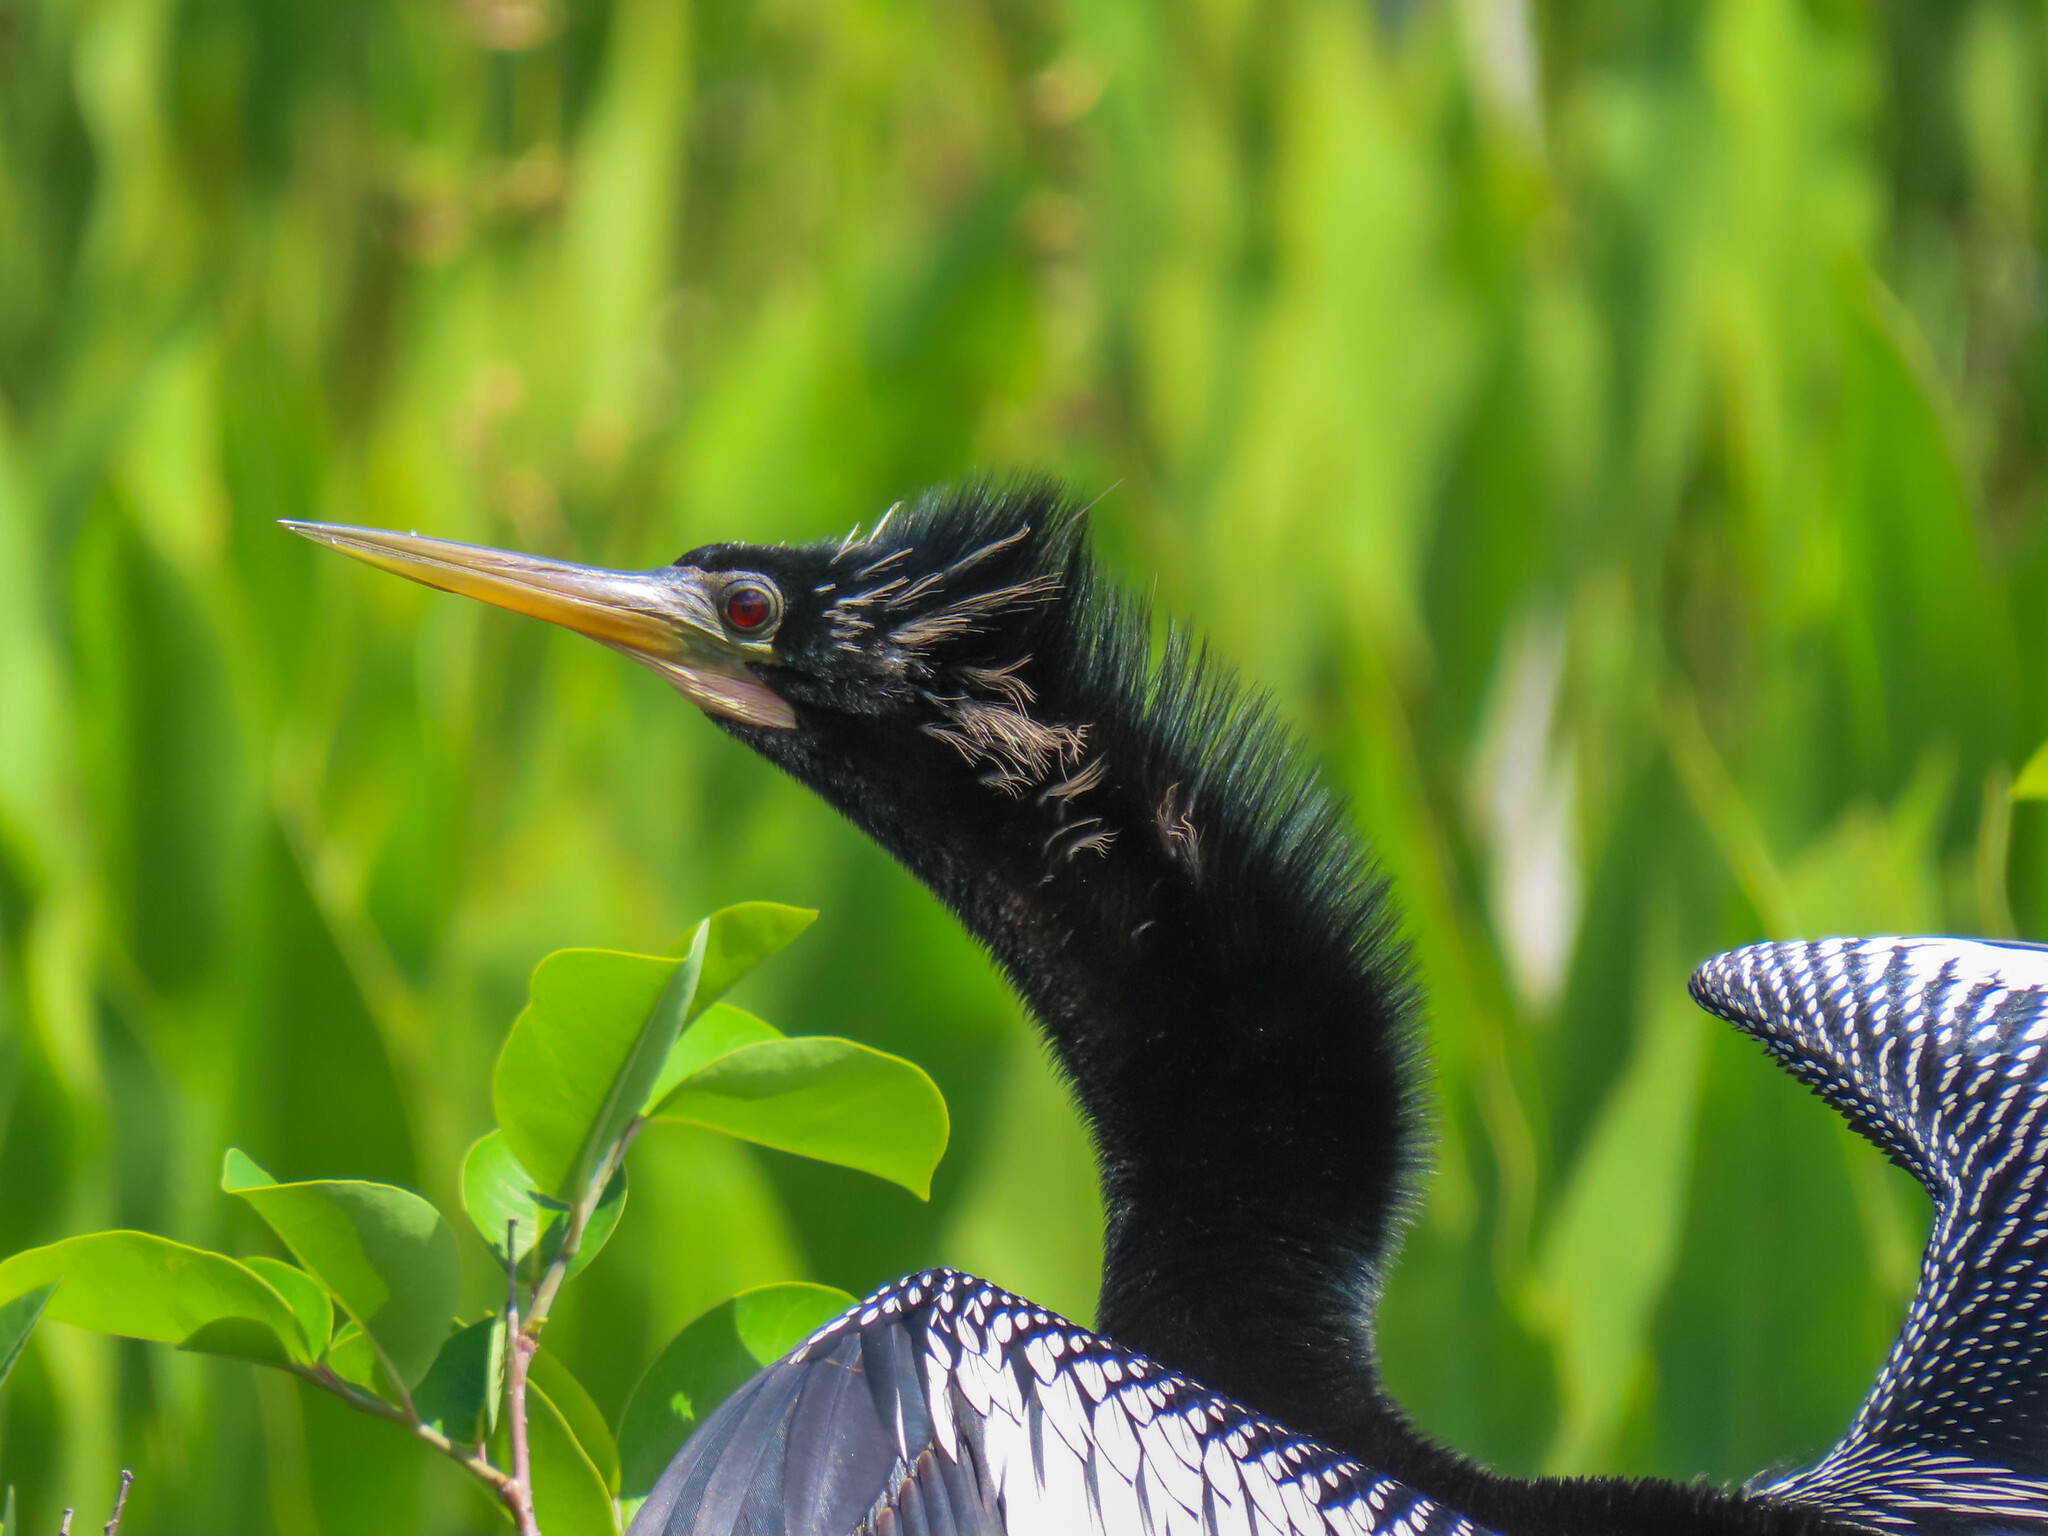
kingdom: Animalia
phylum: Chordata
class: Aves
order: Suliformes
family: Anhingidae
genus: Anhinga
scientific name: Anhinga anhinga
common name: Anhinga
